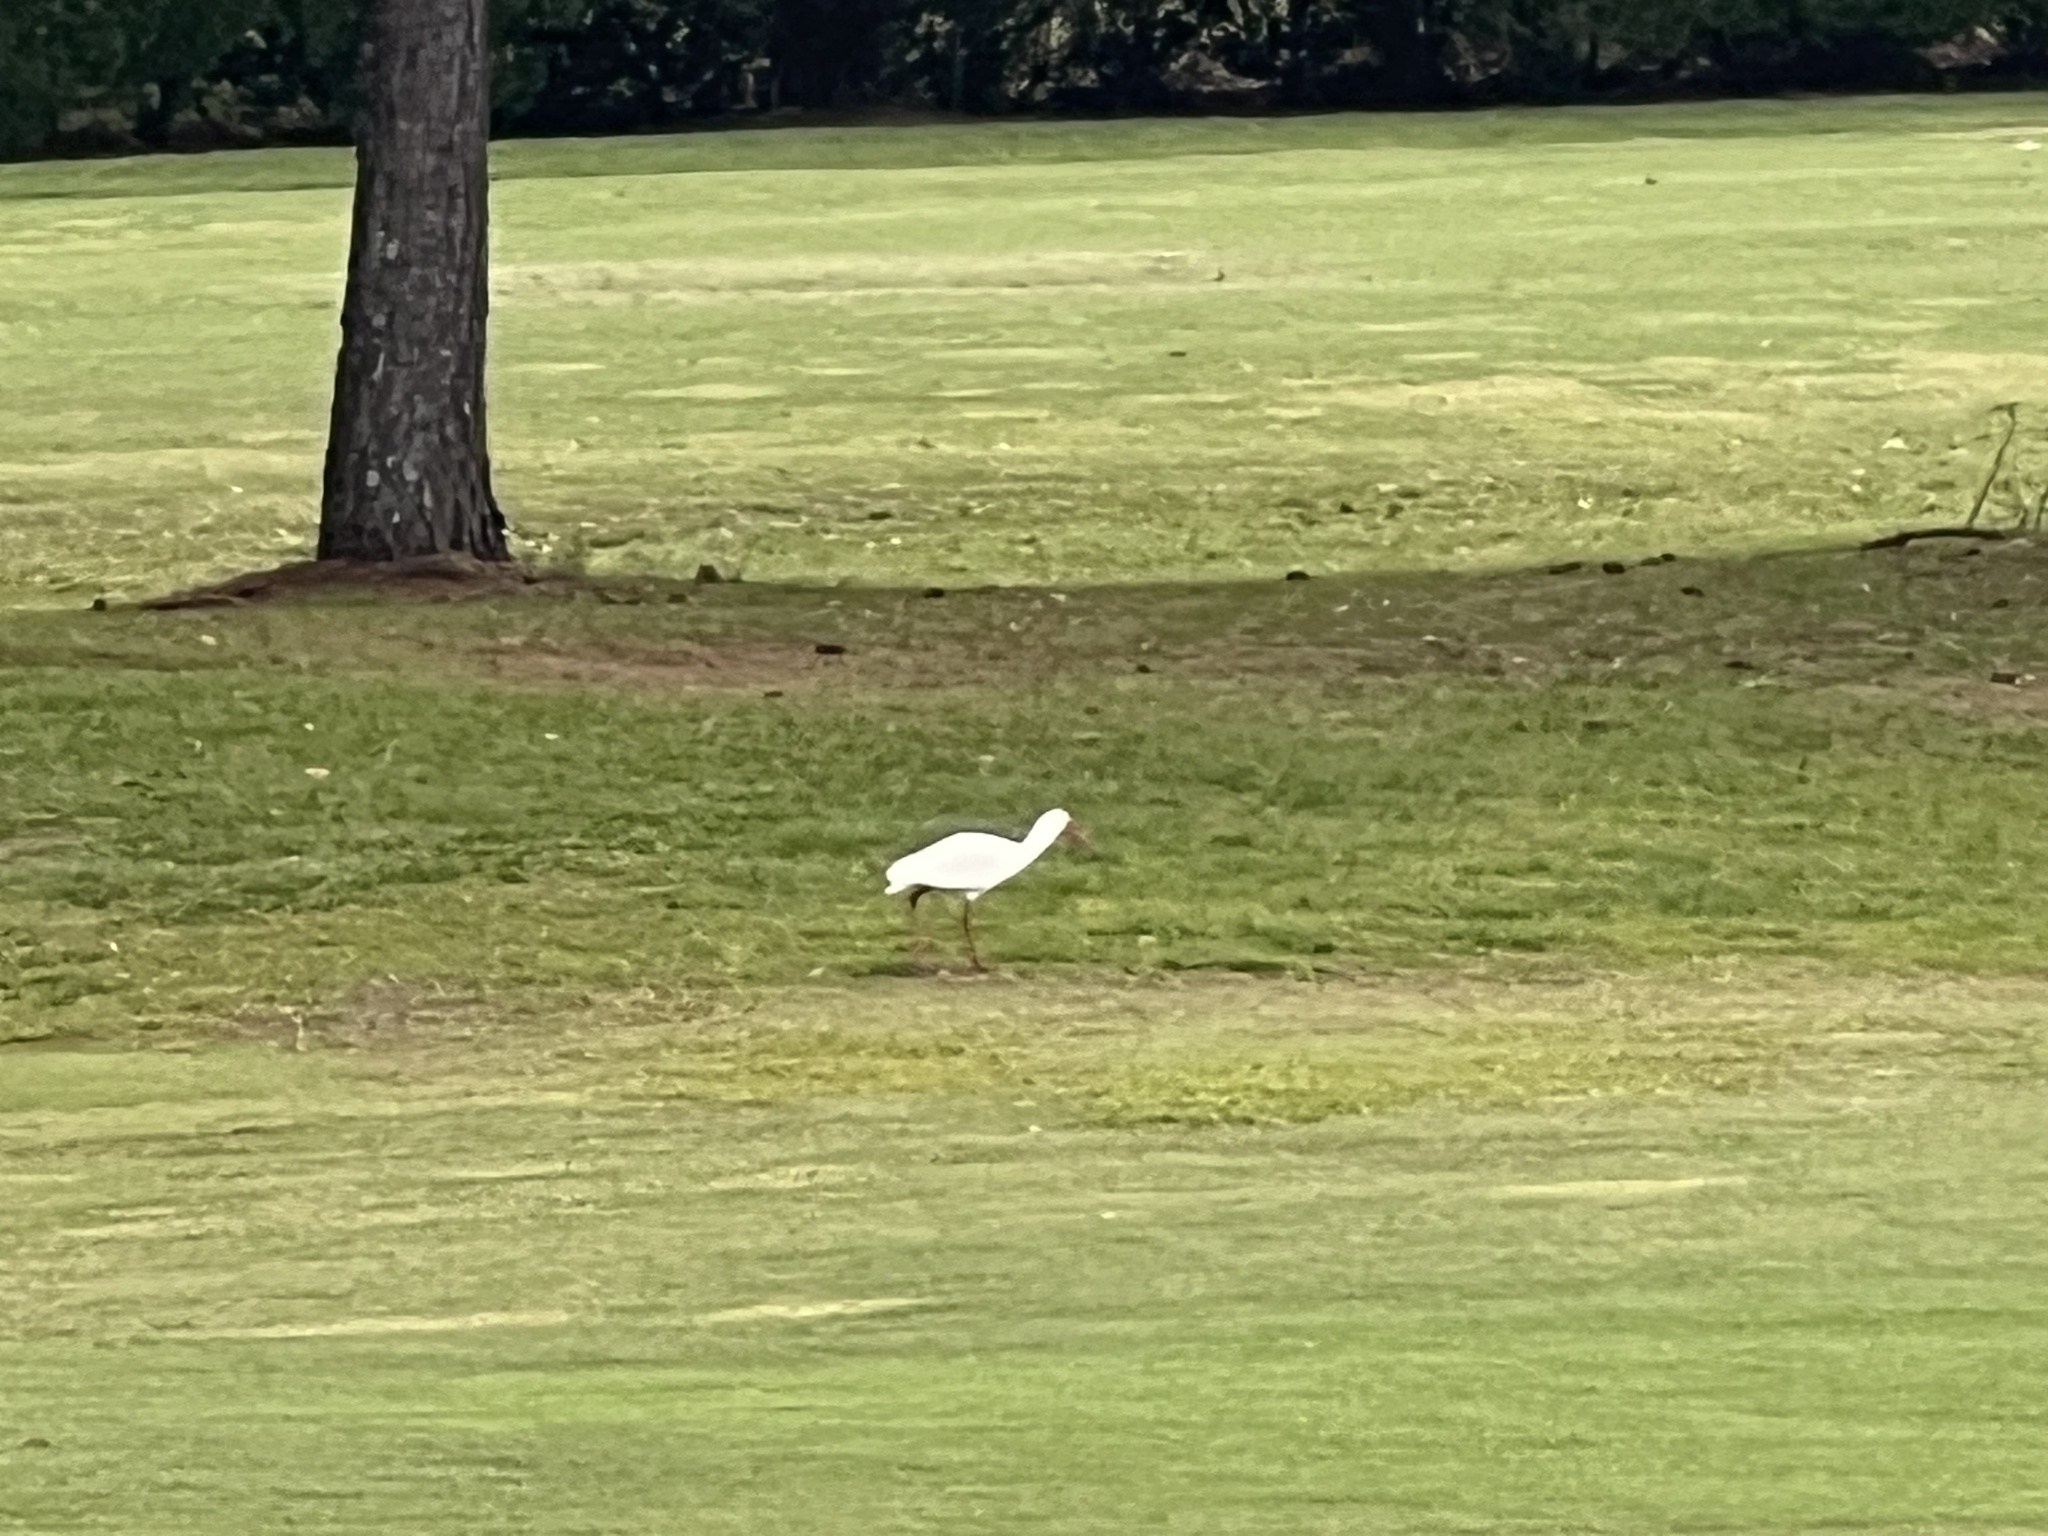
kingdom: Animalia
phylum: Chordata
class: Aves
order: Pelecaniformes
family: Threskiornithidae
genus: Eudocimus
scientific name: Eudocimus albus
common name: White ibis
